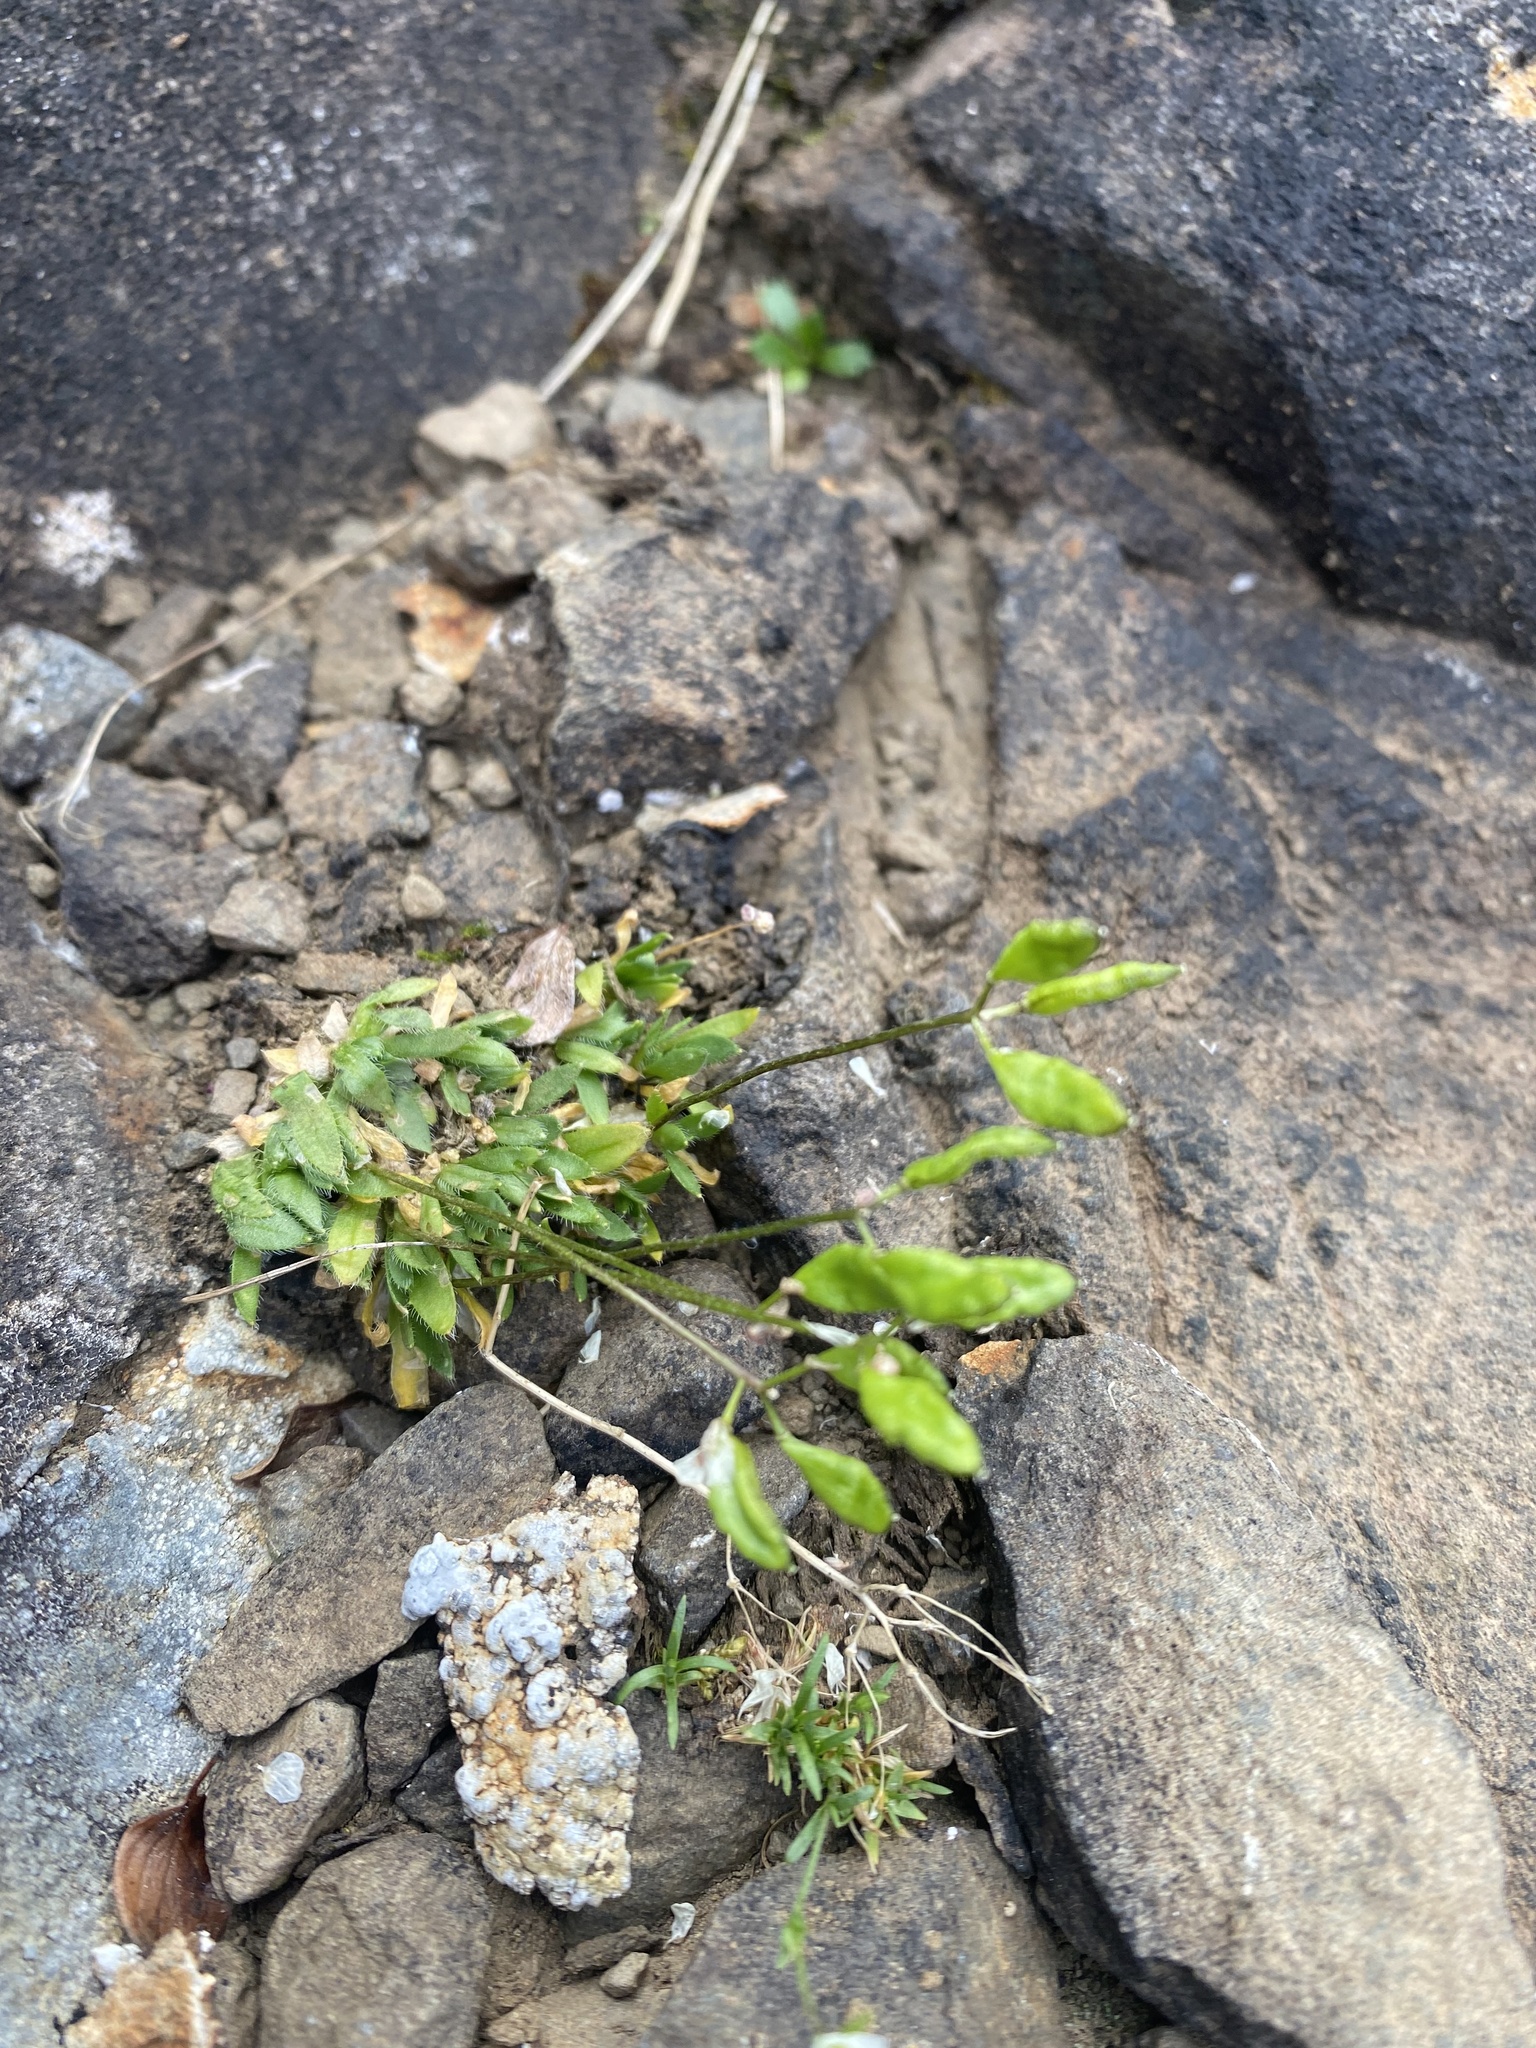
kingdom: Plantae
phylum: Tracheophyta
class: Magnoliopsida
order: Brassicales
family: Brassicaceae
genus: Draba
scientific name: Draba ochroleuca
